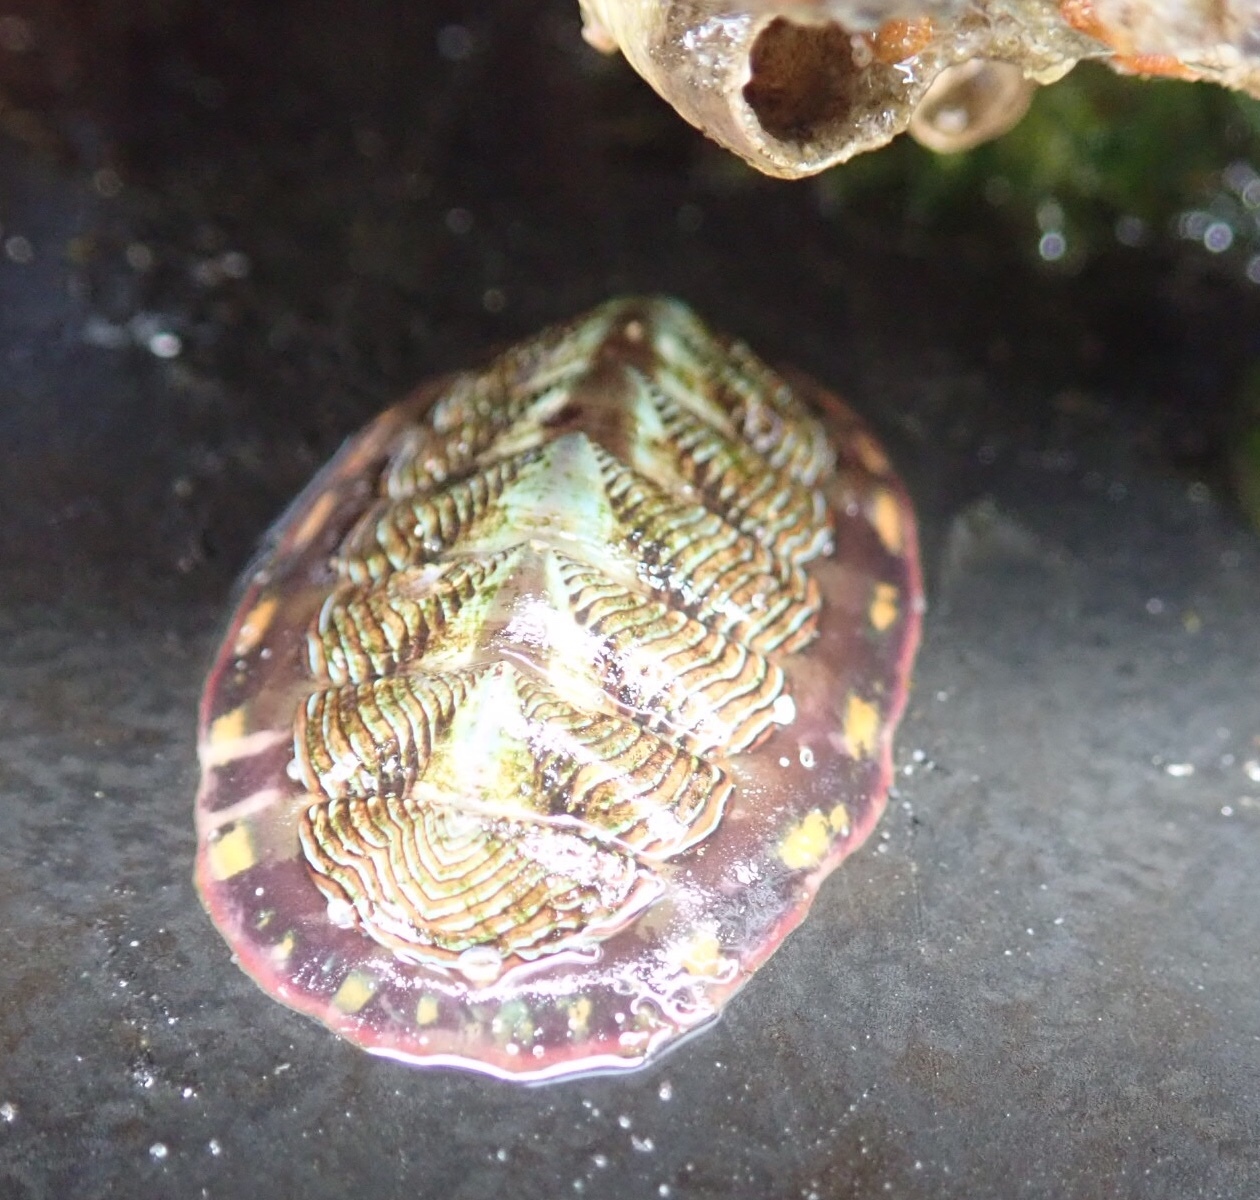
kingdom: Animalia
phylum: Mollusca
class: Polyplacophora
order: Chitonida
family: Tonicellidae
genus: Tonicella
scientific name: Tonicella lineata
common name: Lined chiton
